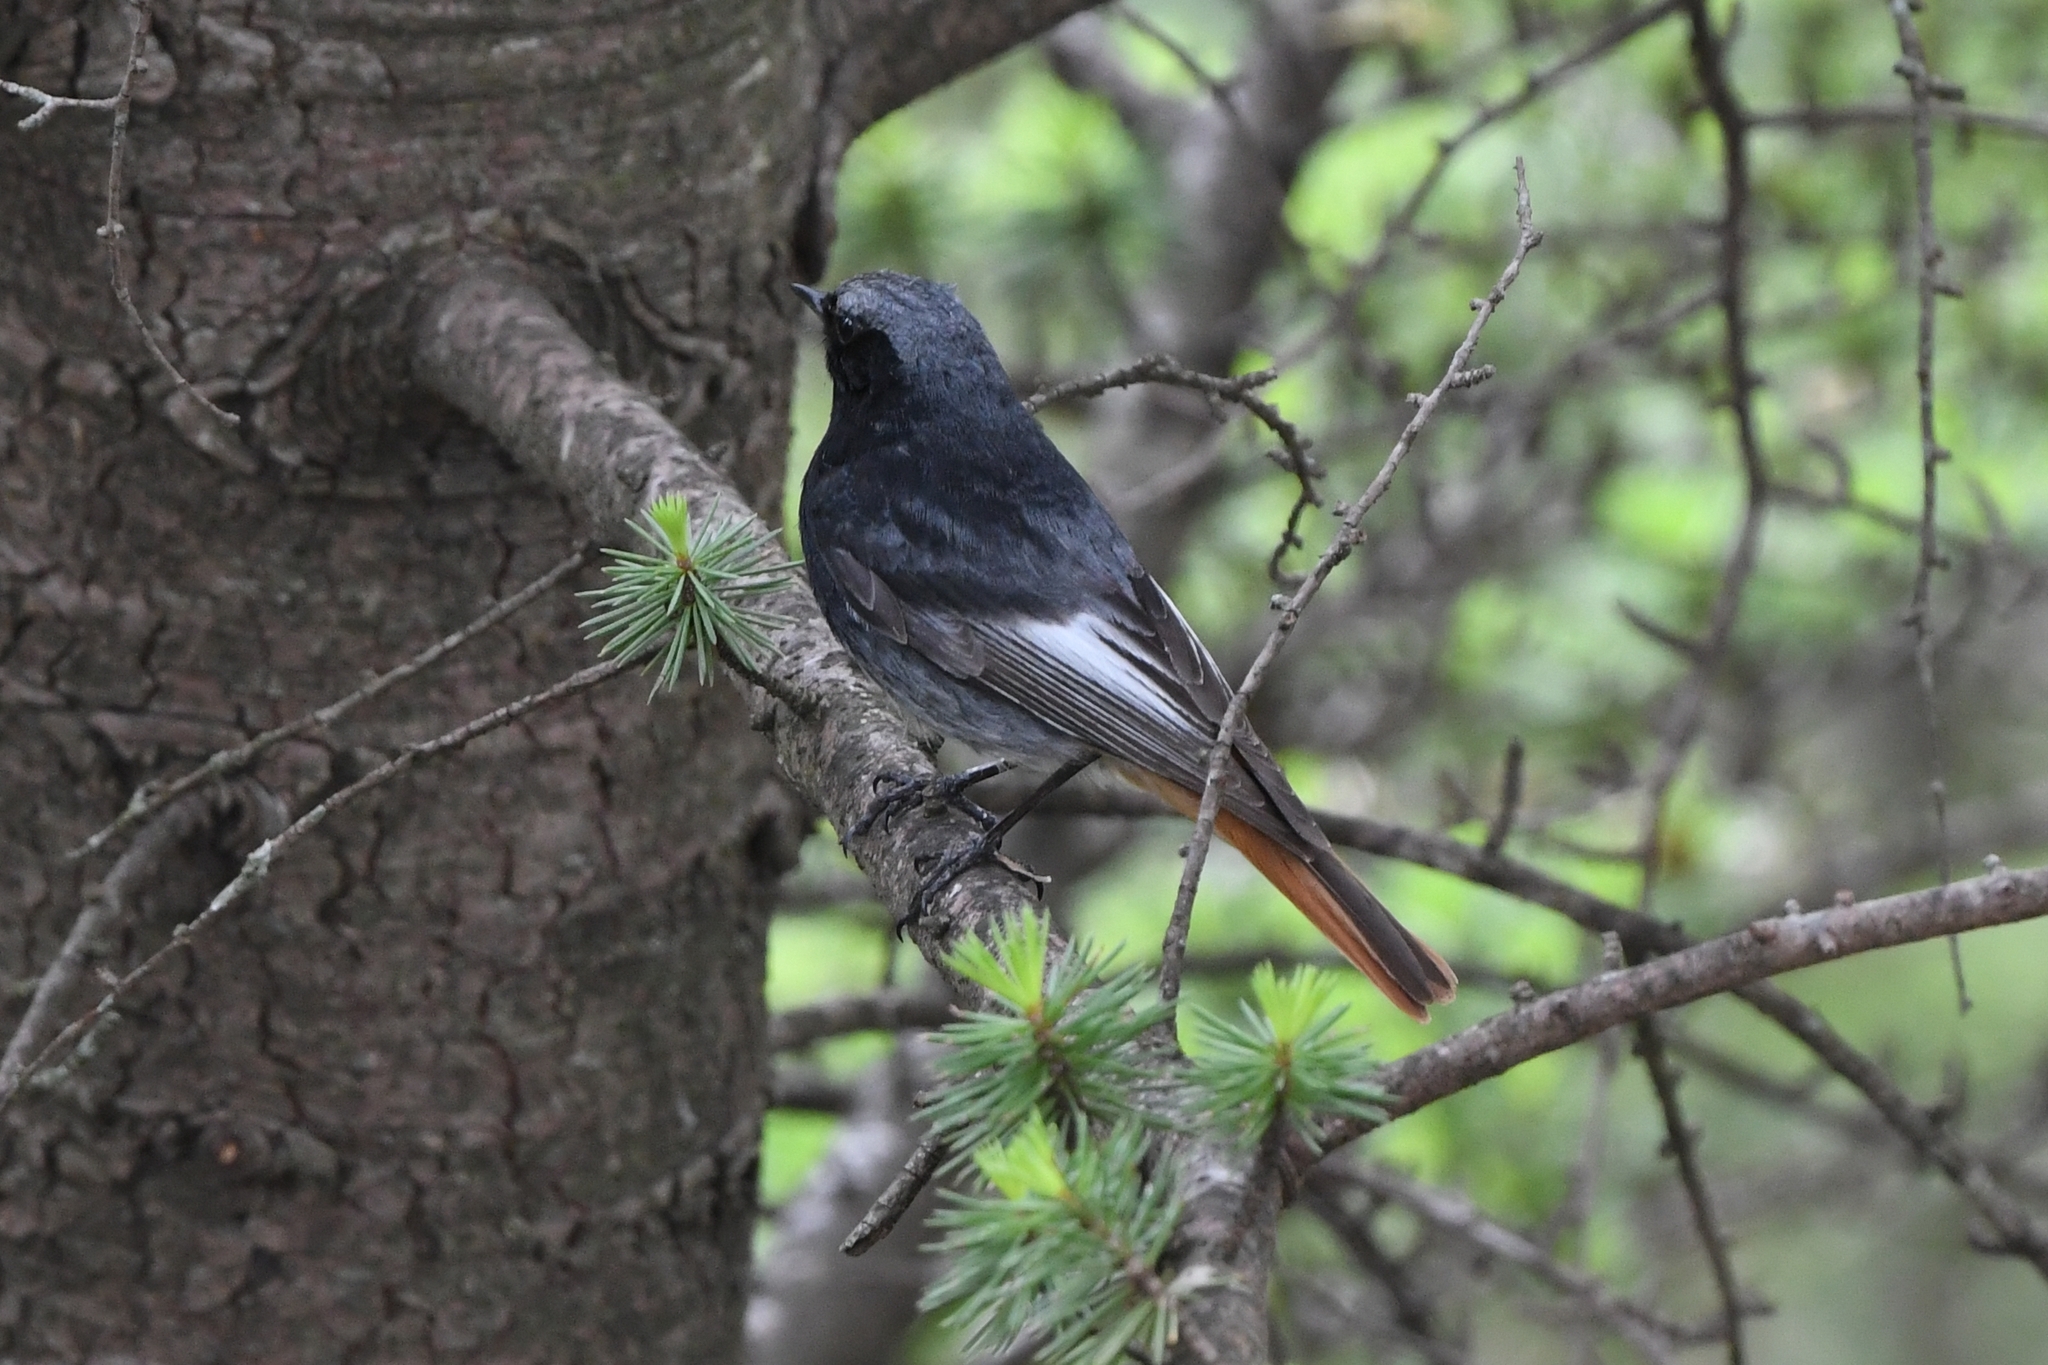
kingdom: Animalia
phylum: Chordata
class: Aves
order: Passeriformes
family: Muscicapidae
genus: Phoenicurus
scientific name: Phoenicurus ochruros
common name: Black redstart
